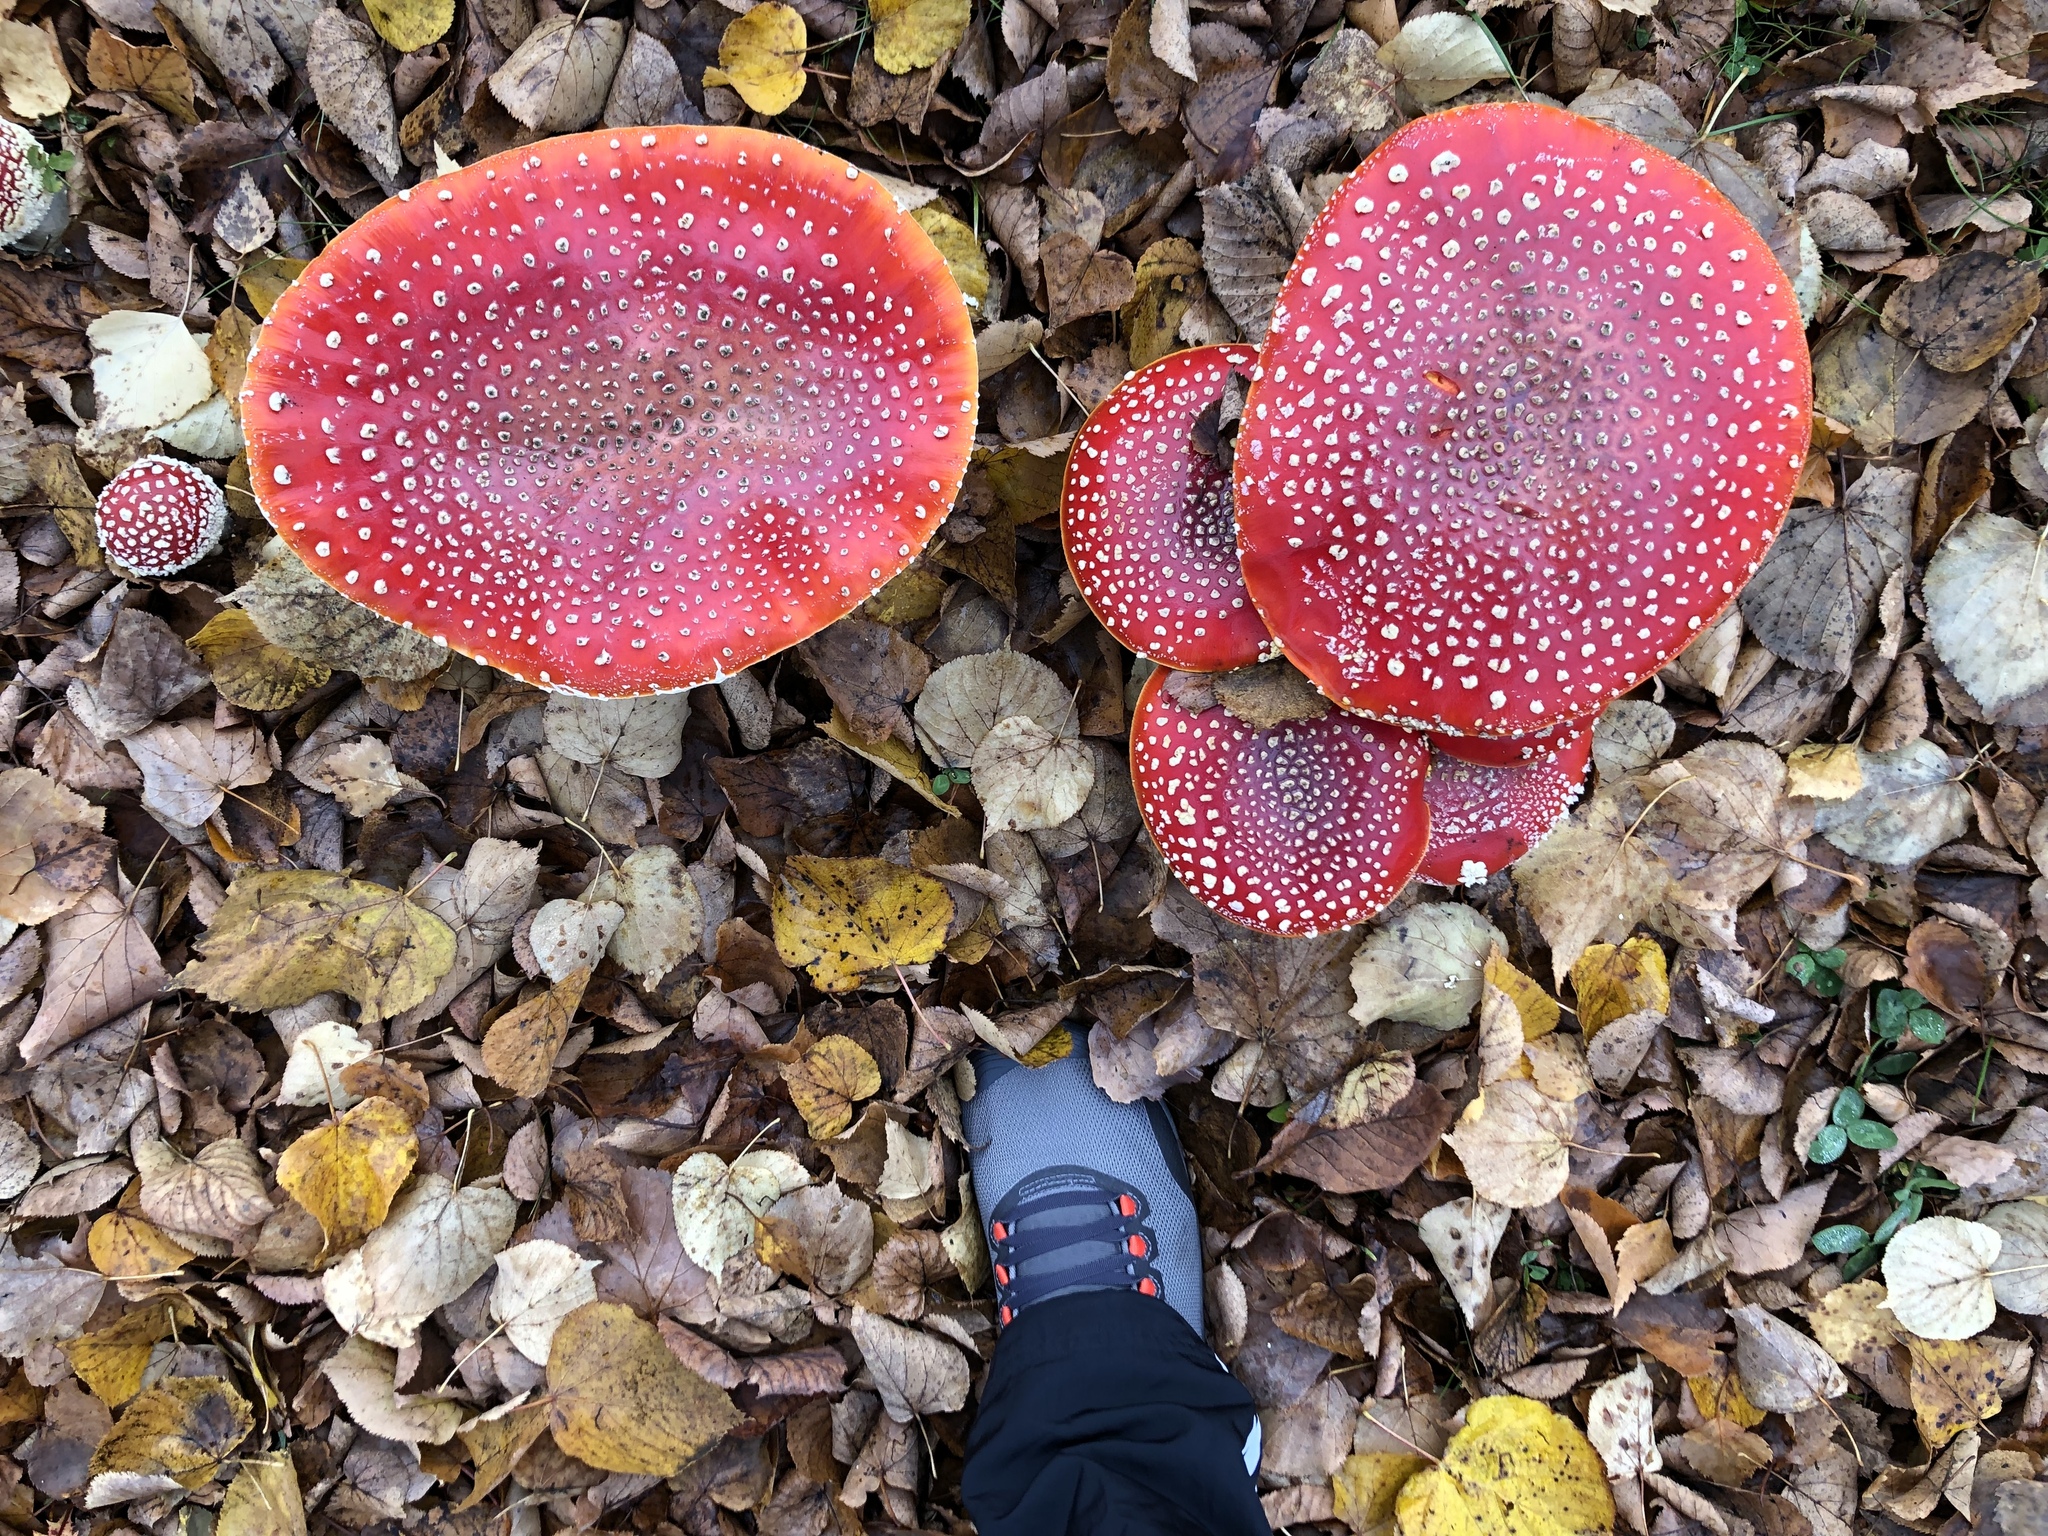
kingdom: Fungi
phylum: Basidiomycota
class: Agaricomycetes
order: Agaricales
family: Amanitaceae
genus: Amanita
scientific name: Amanita muscaria
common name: Fly agaric
